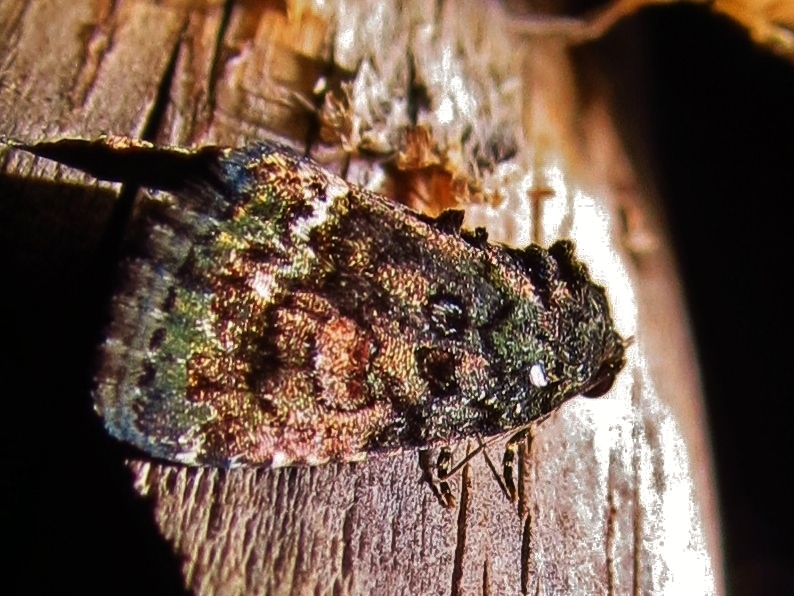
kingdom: Animalia
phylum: Arthropoda
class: Insecta
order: Lepidoptera
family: Noctuidae
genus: Lithacodia
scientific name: Lithacodia musta
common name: Small mossy glyph
